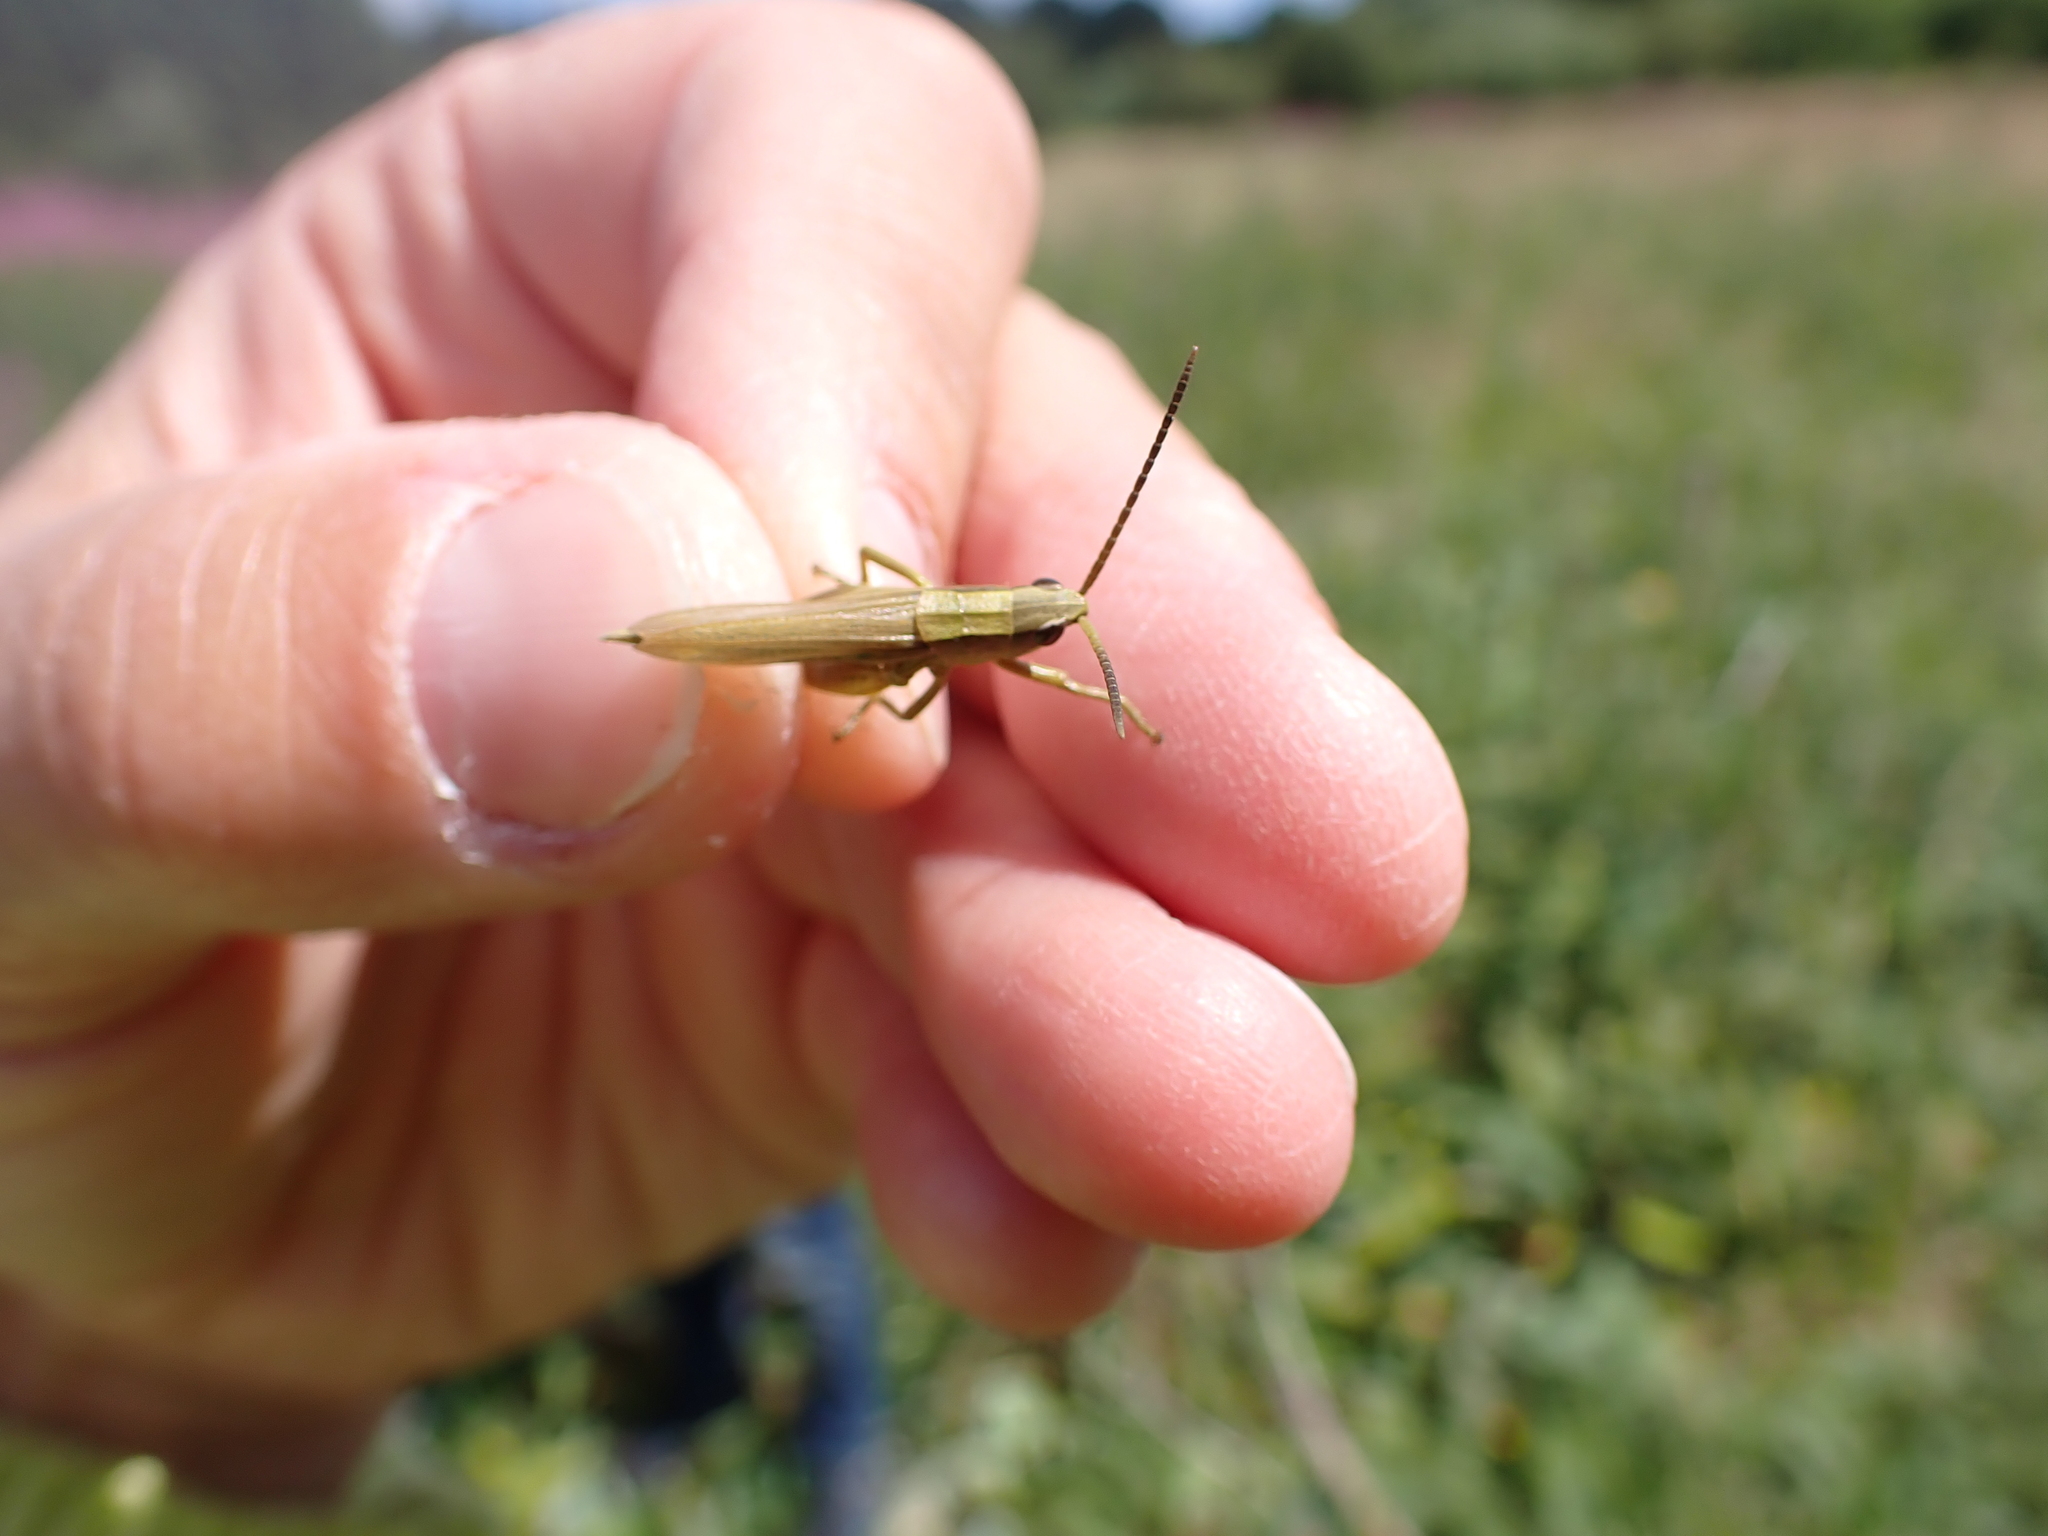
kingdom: Animalia
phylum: Arthropoda
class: Insecta
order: Orthoptera
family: Acrididae
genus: Chrysochraon
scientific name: Chrysochraon dispar
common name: Large gold grasshopper
